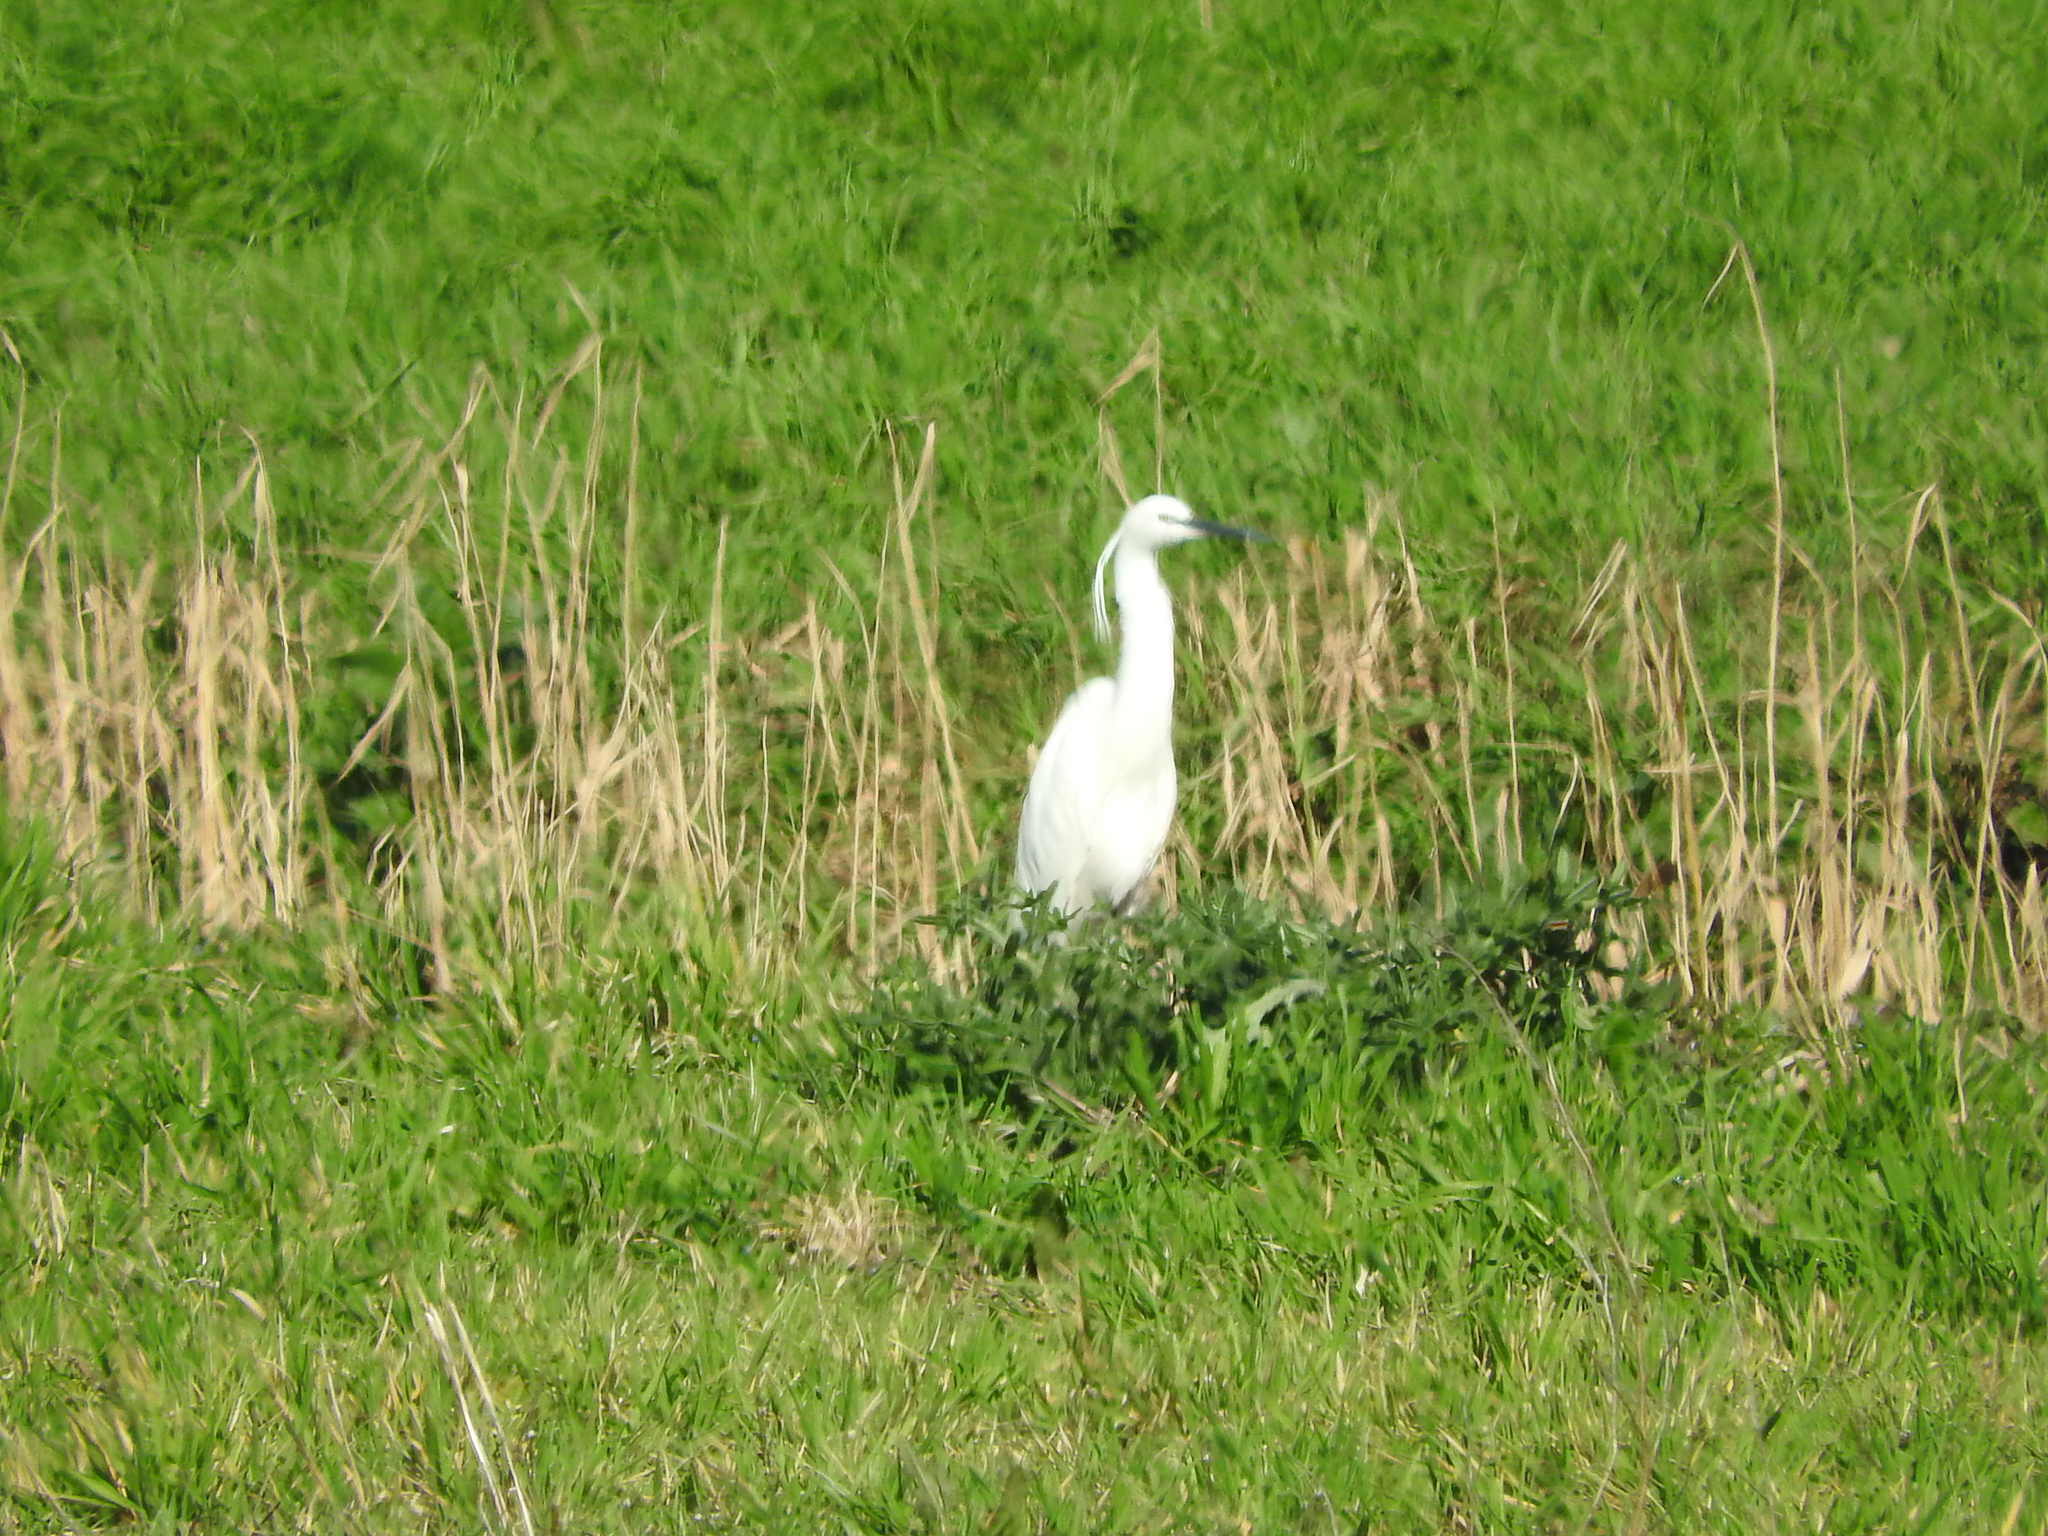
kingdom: Animalia
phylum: Chordata
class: Aves
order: Pelecaniformes
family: Ardeidae
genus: Egretta
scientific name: Egretta garzetta
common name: Little egret
